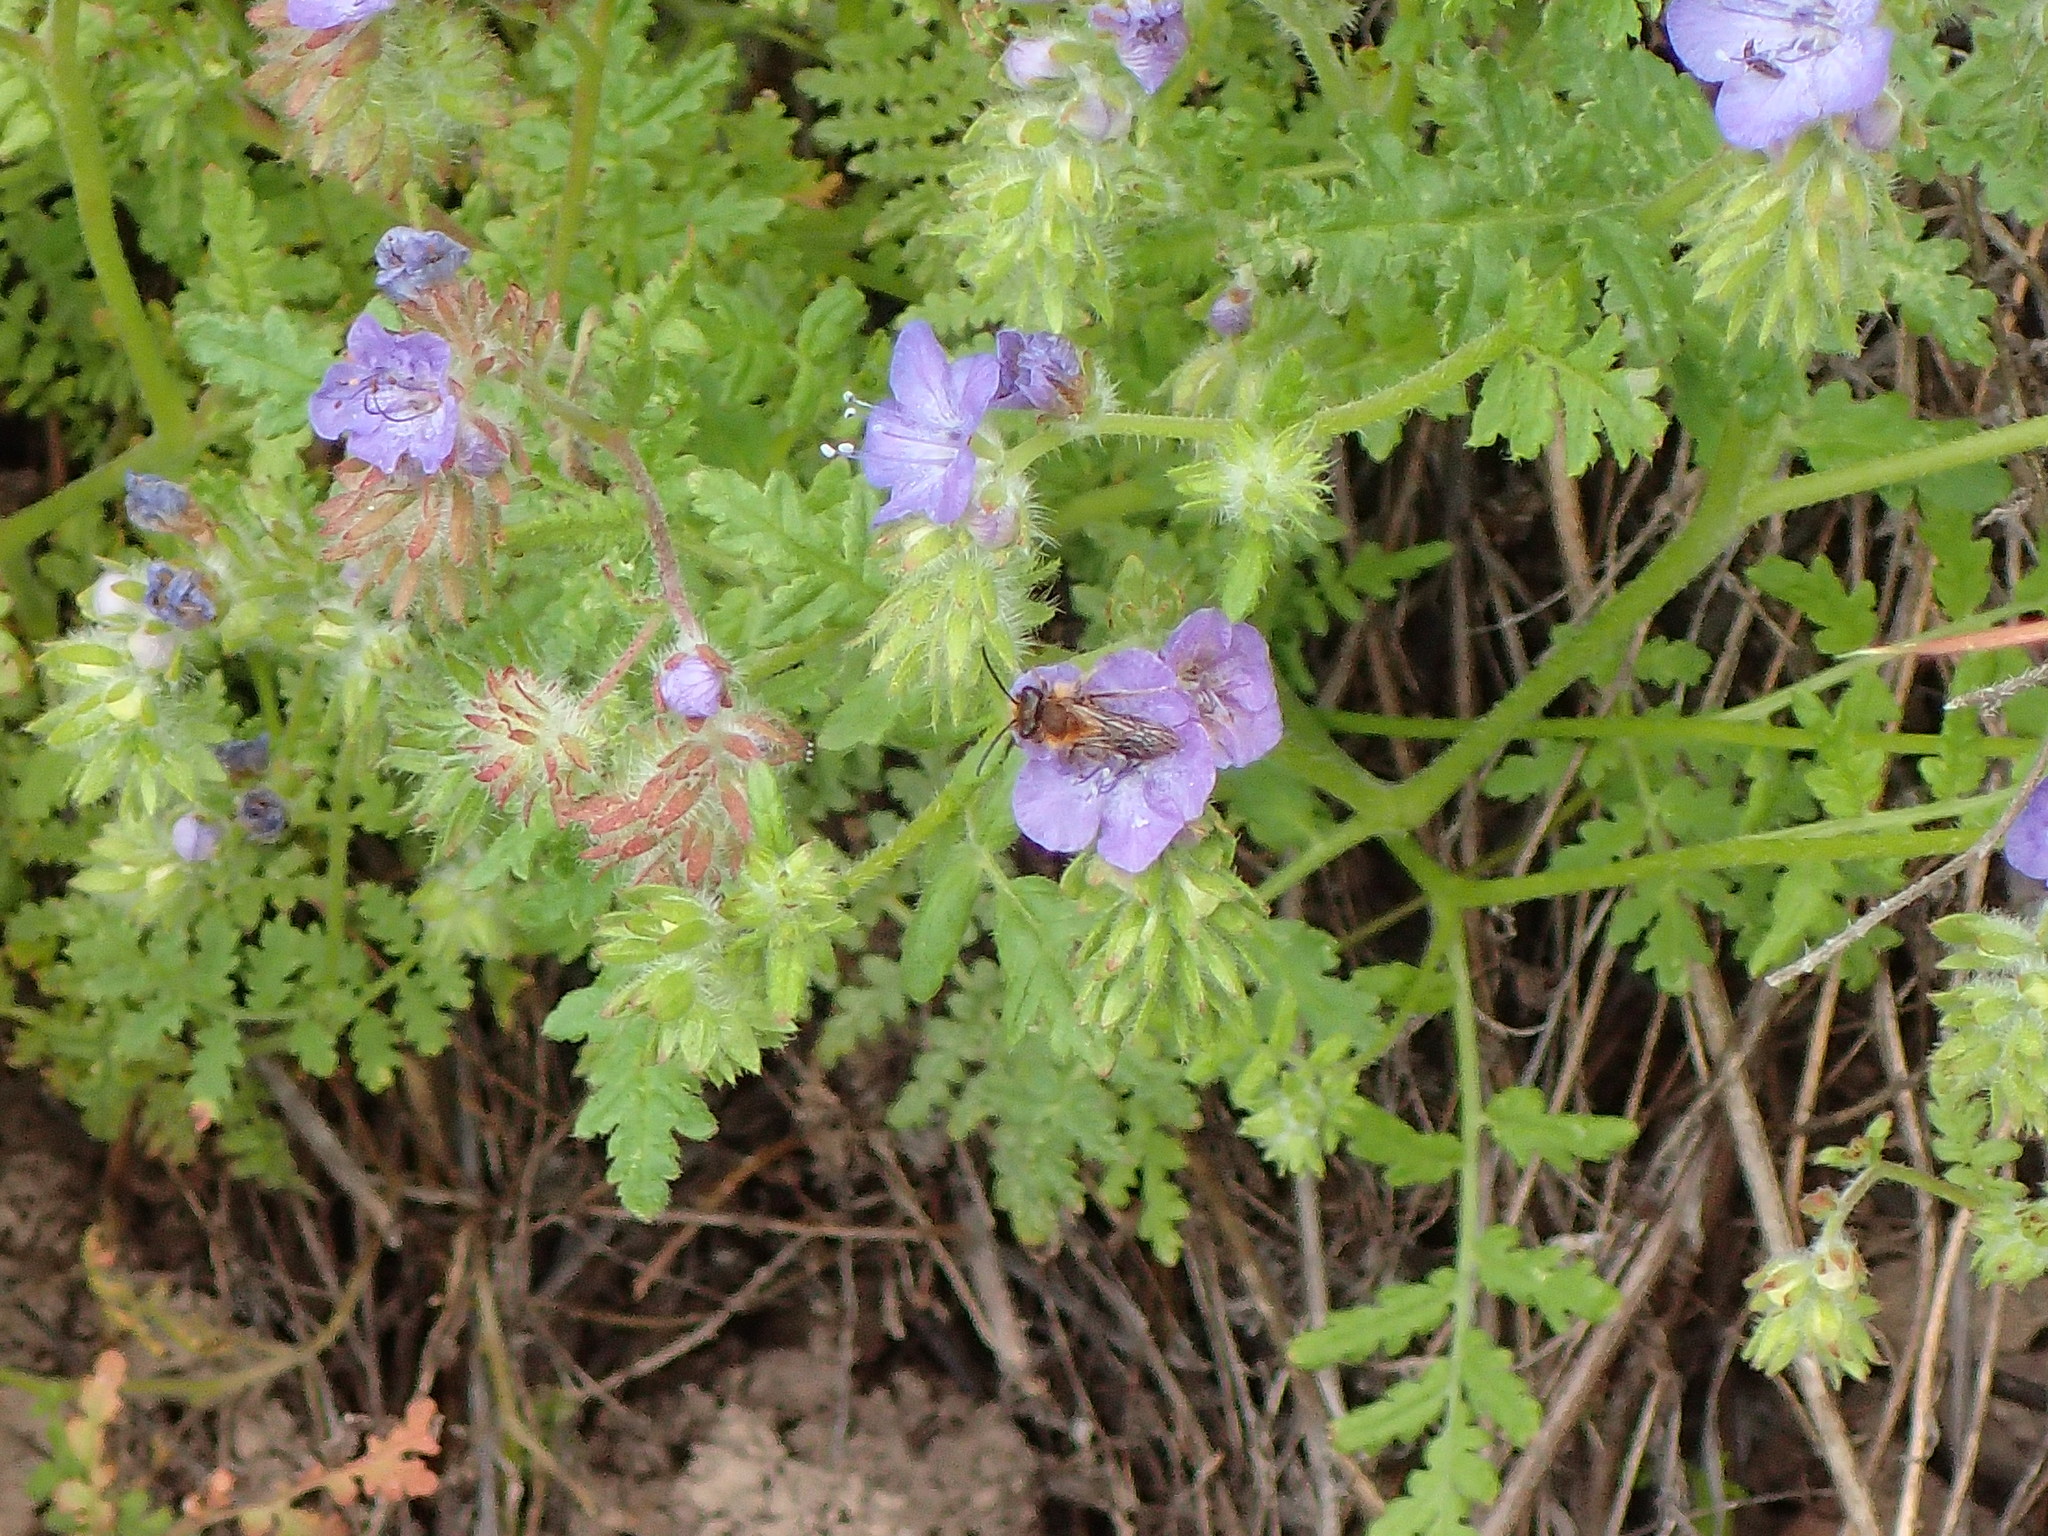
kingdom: Plantae
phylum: Tracheophyta
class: Magnoliopsida
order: Boraginales
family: Hydrophyllaceae
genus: Phacelia
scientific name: Phacelia distans
